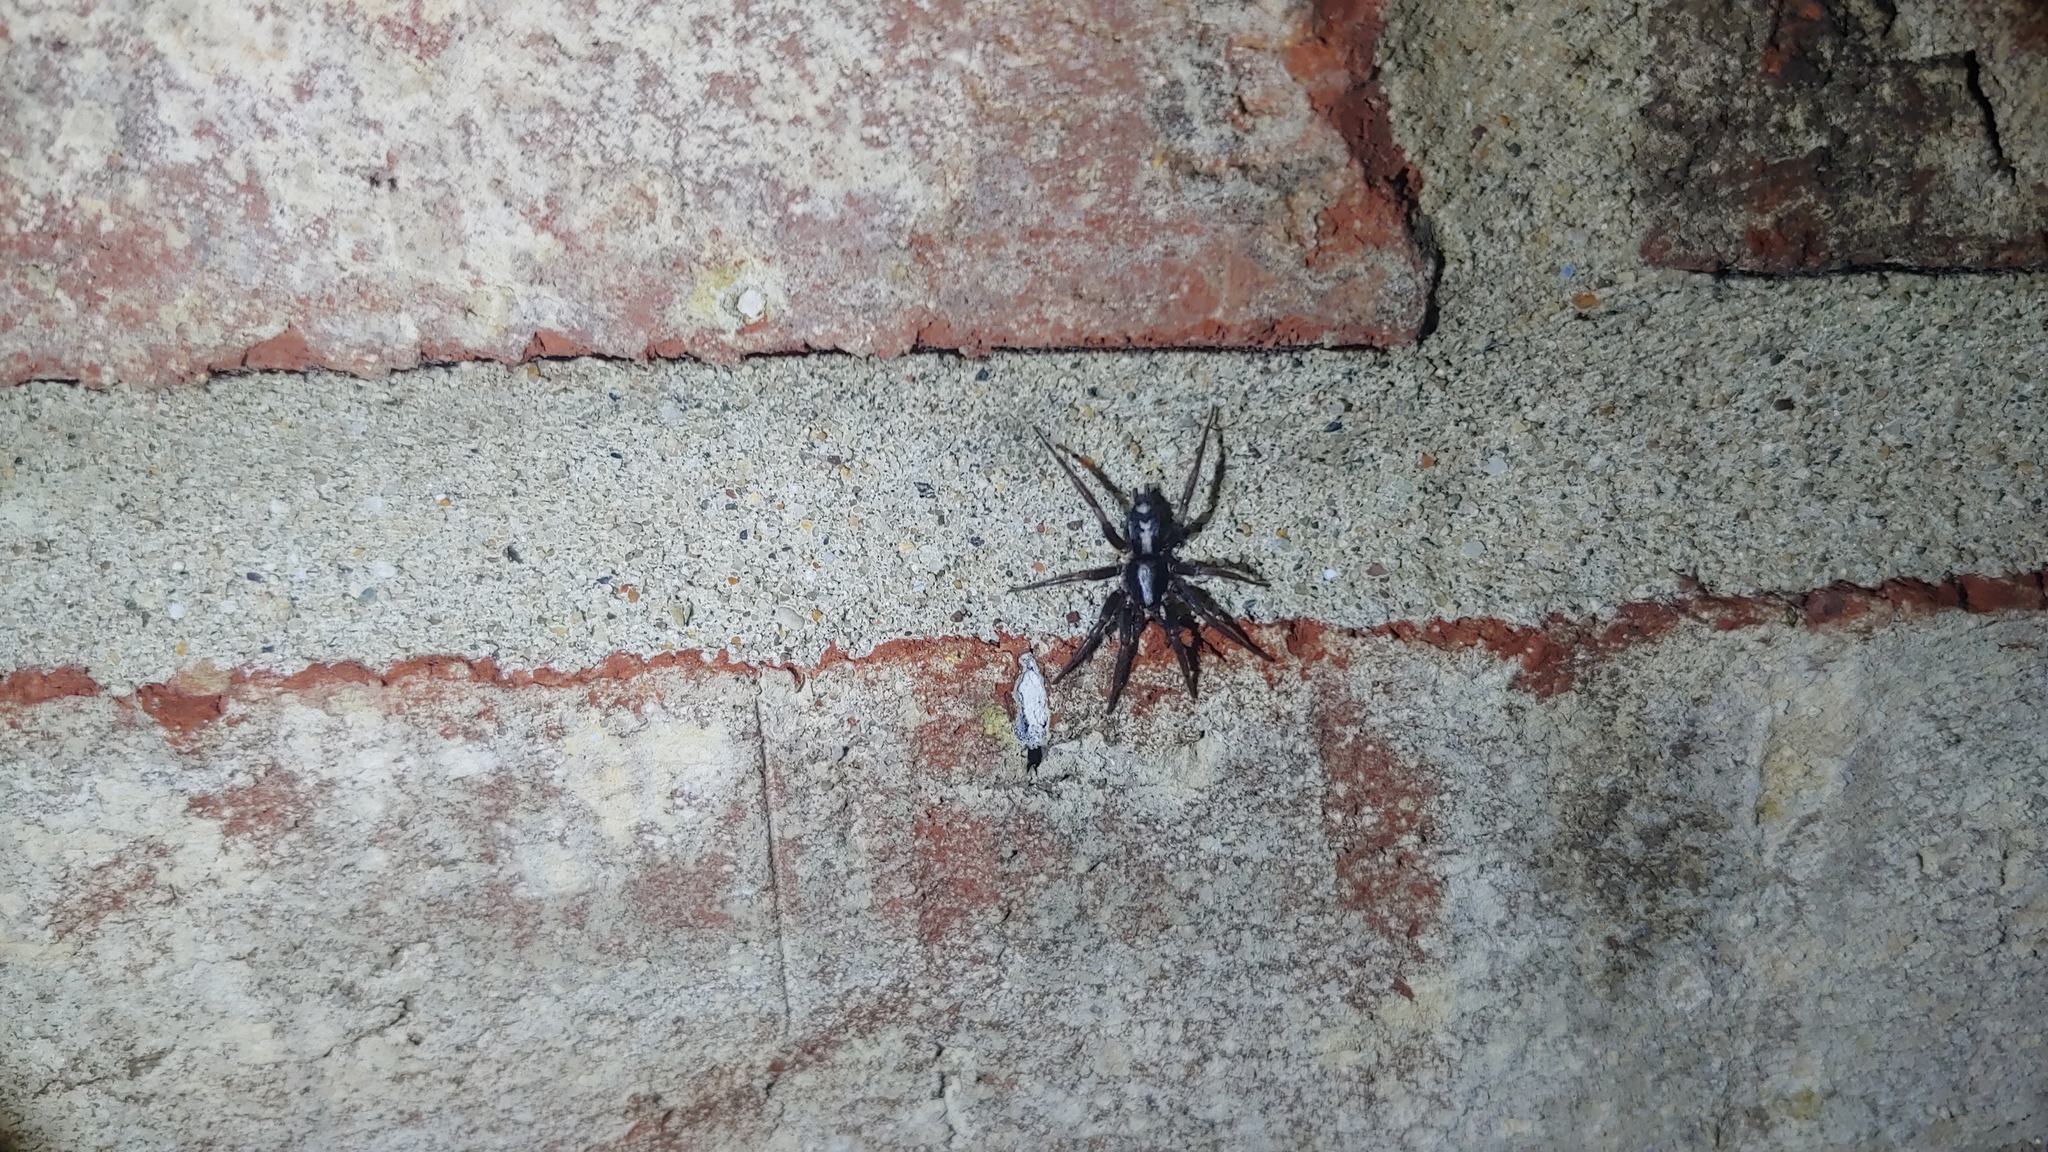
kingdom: Animalia
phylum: Arthropoda
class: Arachnida
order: Araneae
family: Gnaphosidae
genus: Herpyllus
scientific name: Herpyllus ecclesiasticus
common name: Eastern parson spider
